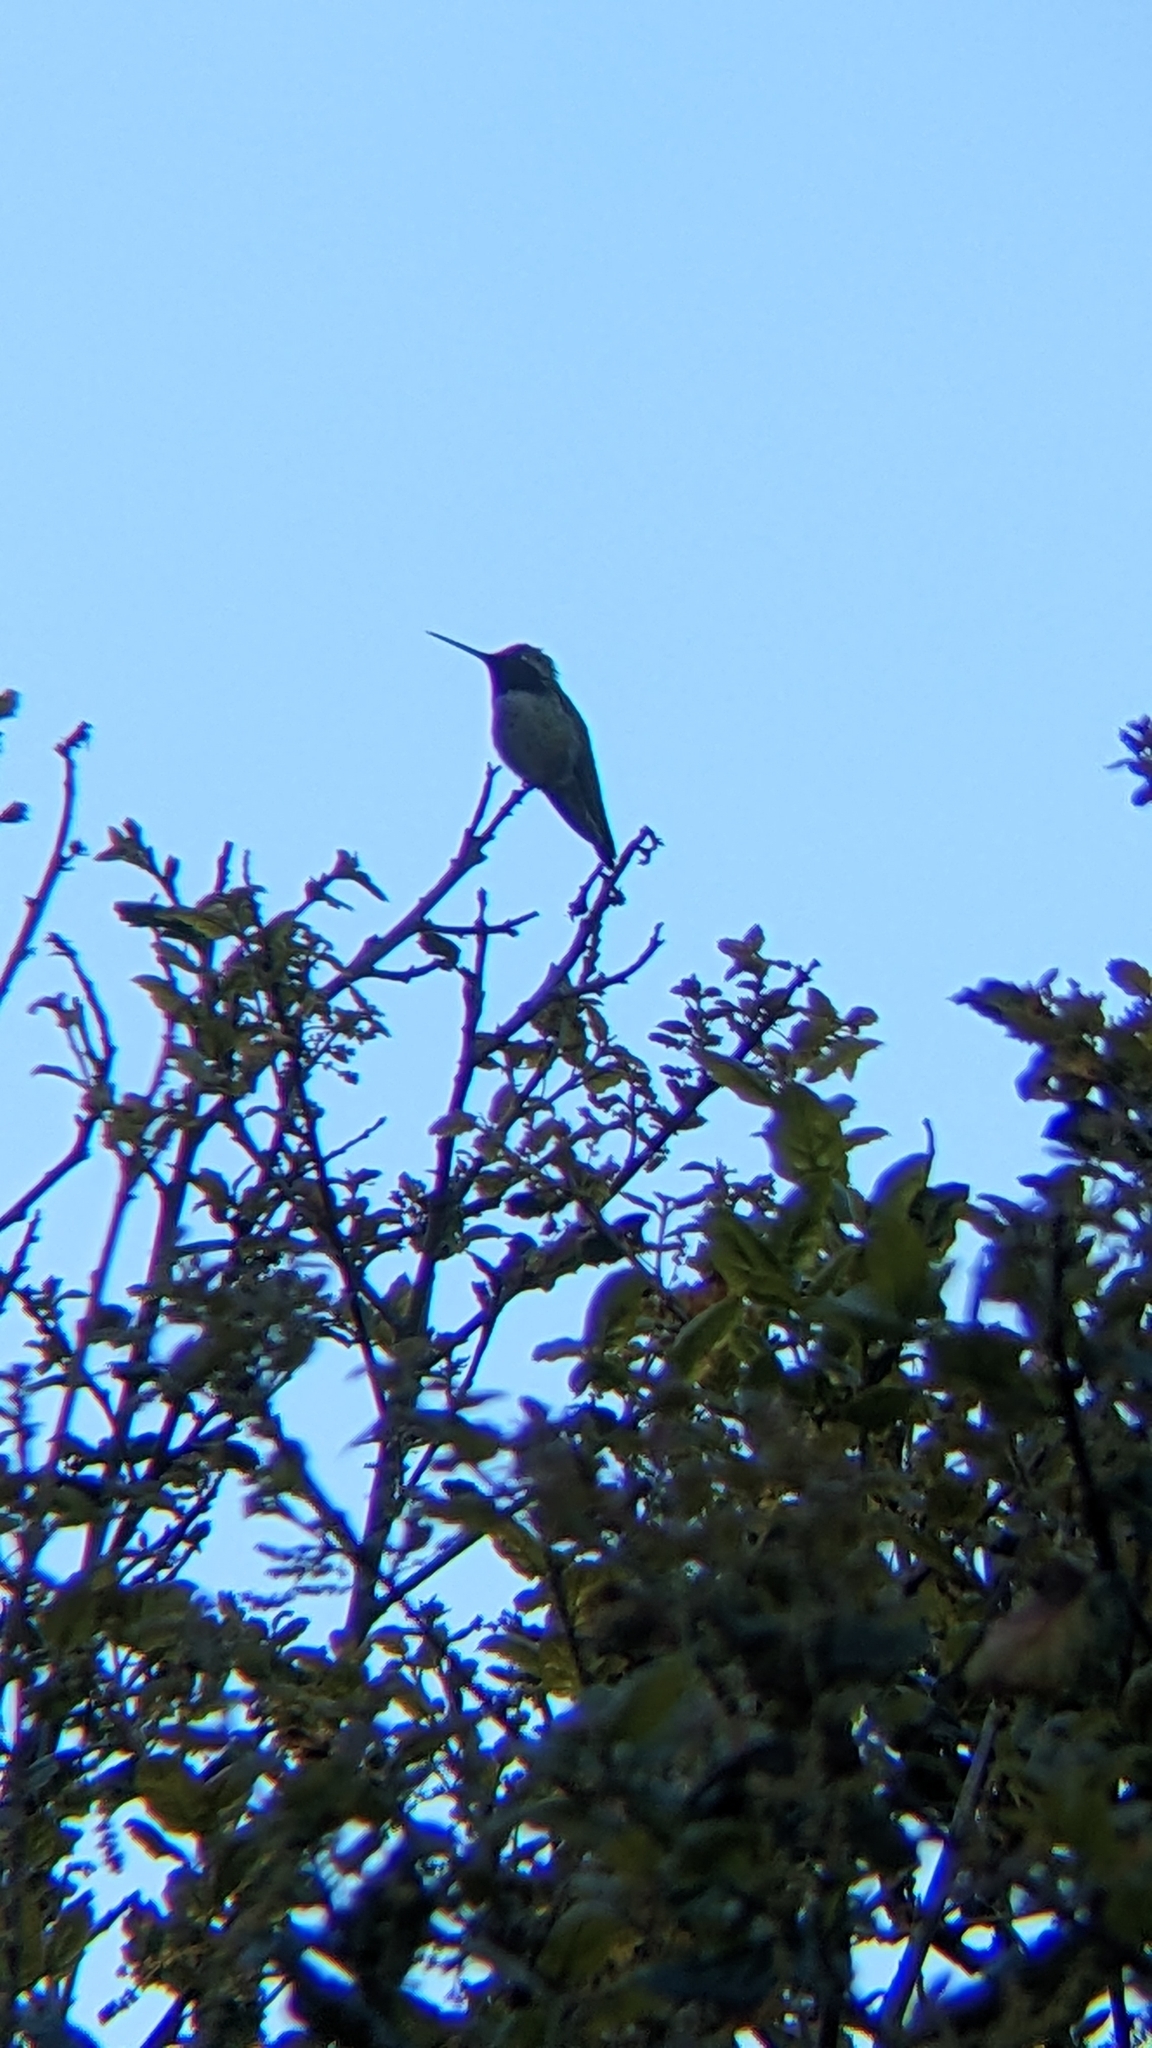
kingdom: Animalia
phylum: Chordata
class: Aves
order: Apodiformes
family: Trochilidae
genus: Calypte
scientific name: Calypte anna
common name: Anna's hummingbird
